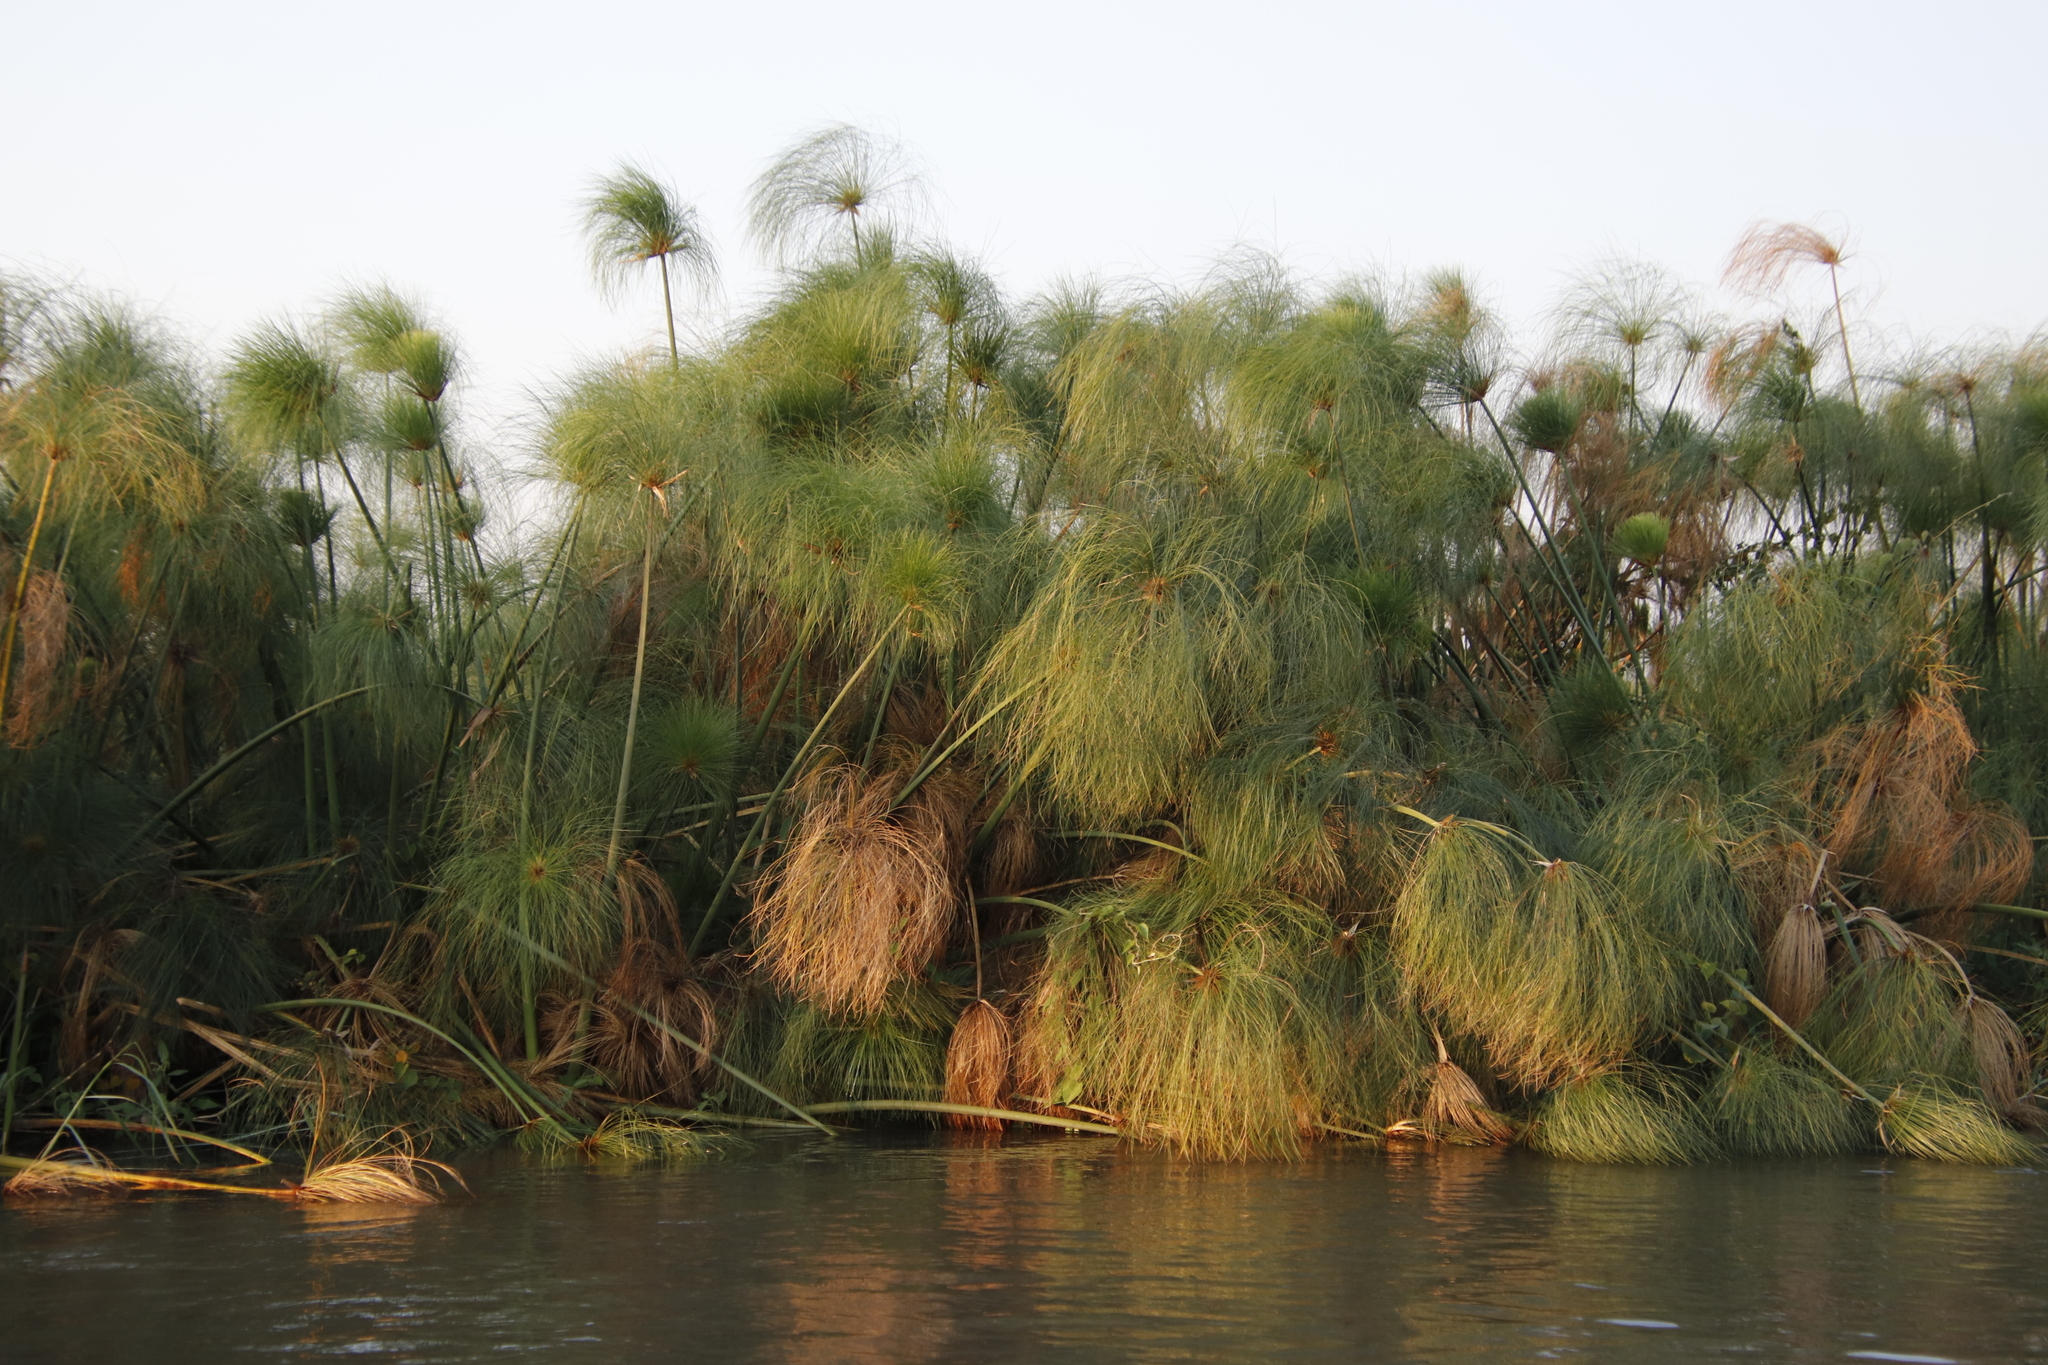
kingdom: Plantae
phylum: Tracheophyta
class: Liliopsida
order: Poales
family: Cyperaceae
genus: Cyperus
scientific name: Cyperus papyrus
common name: Papyrus
